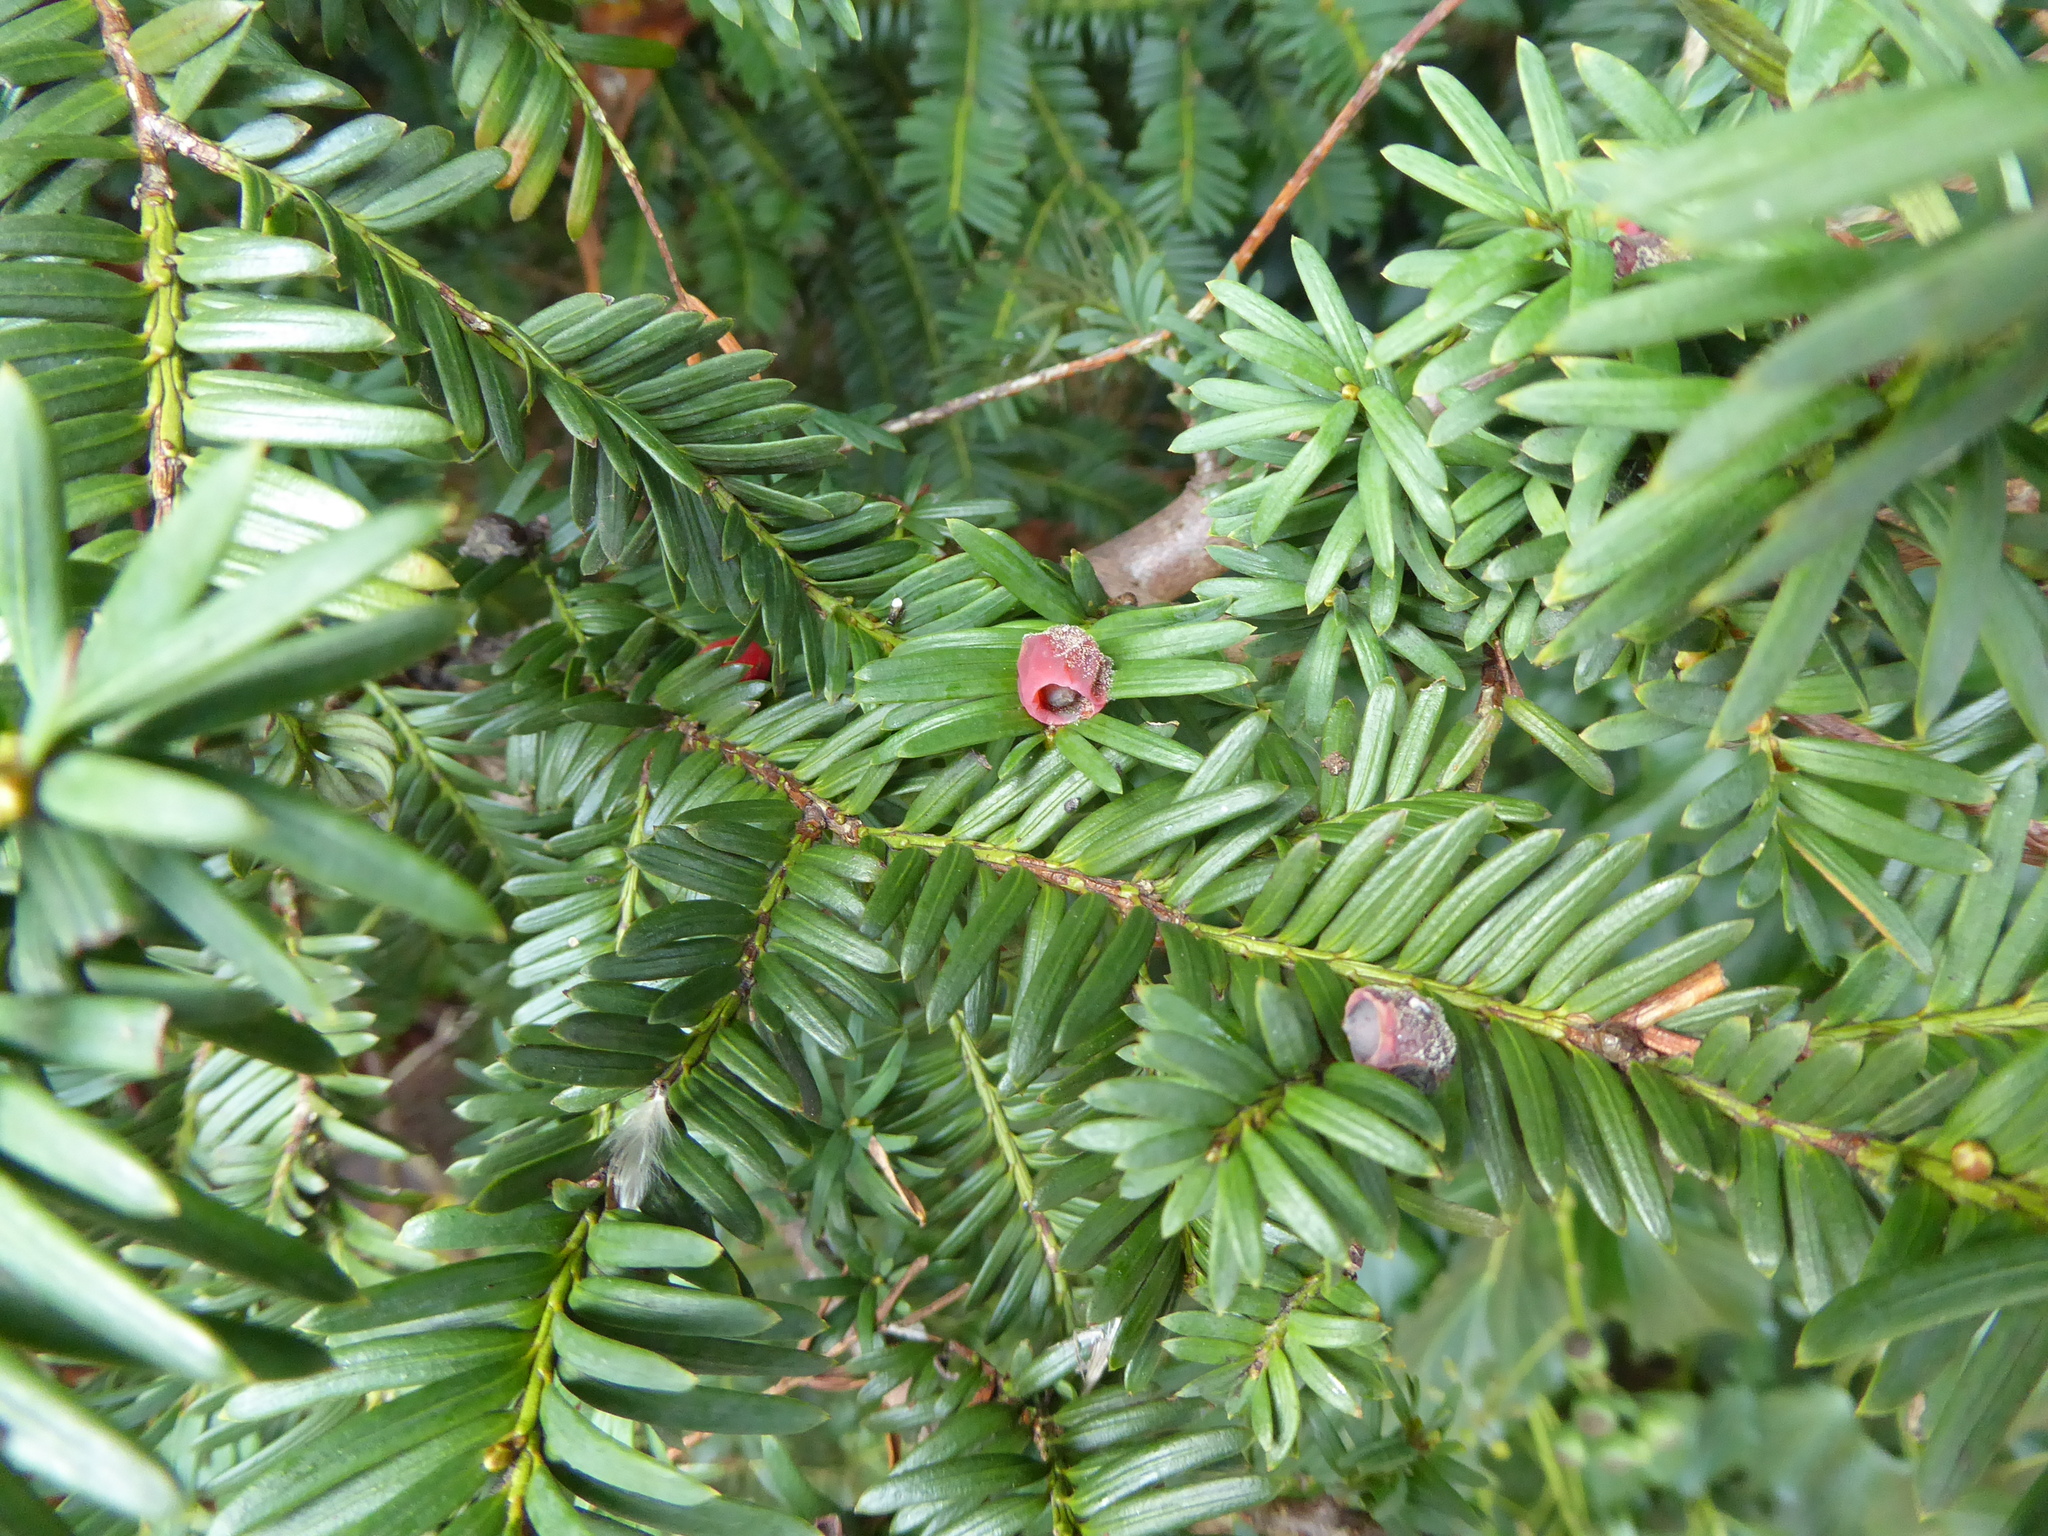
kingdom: Plantae
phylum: Tracheophyta
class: Pinopsida
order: Pinales
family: Taxaceae
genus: Taxus
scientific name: Taxus baccata
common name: Yew
